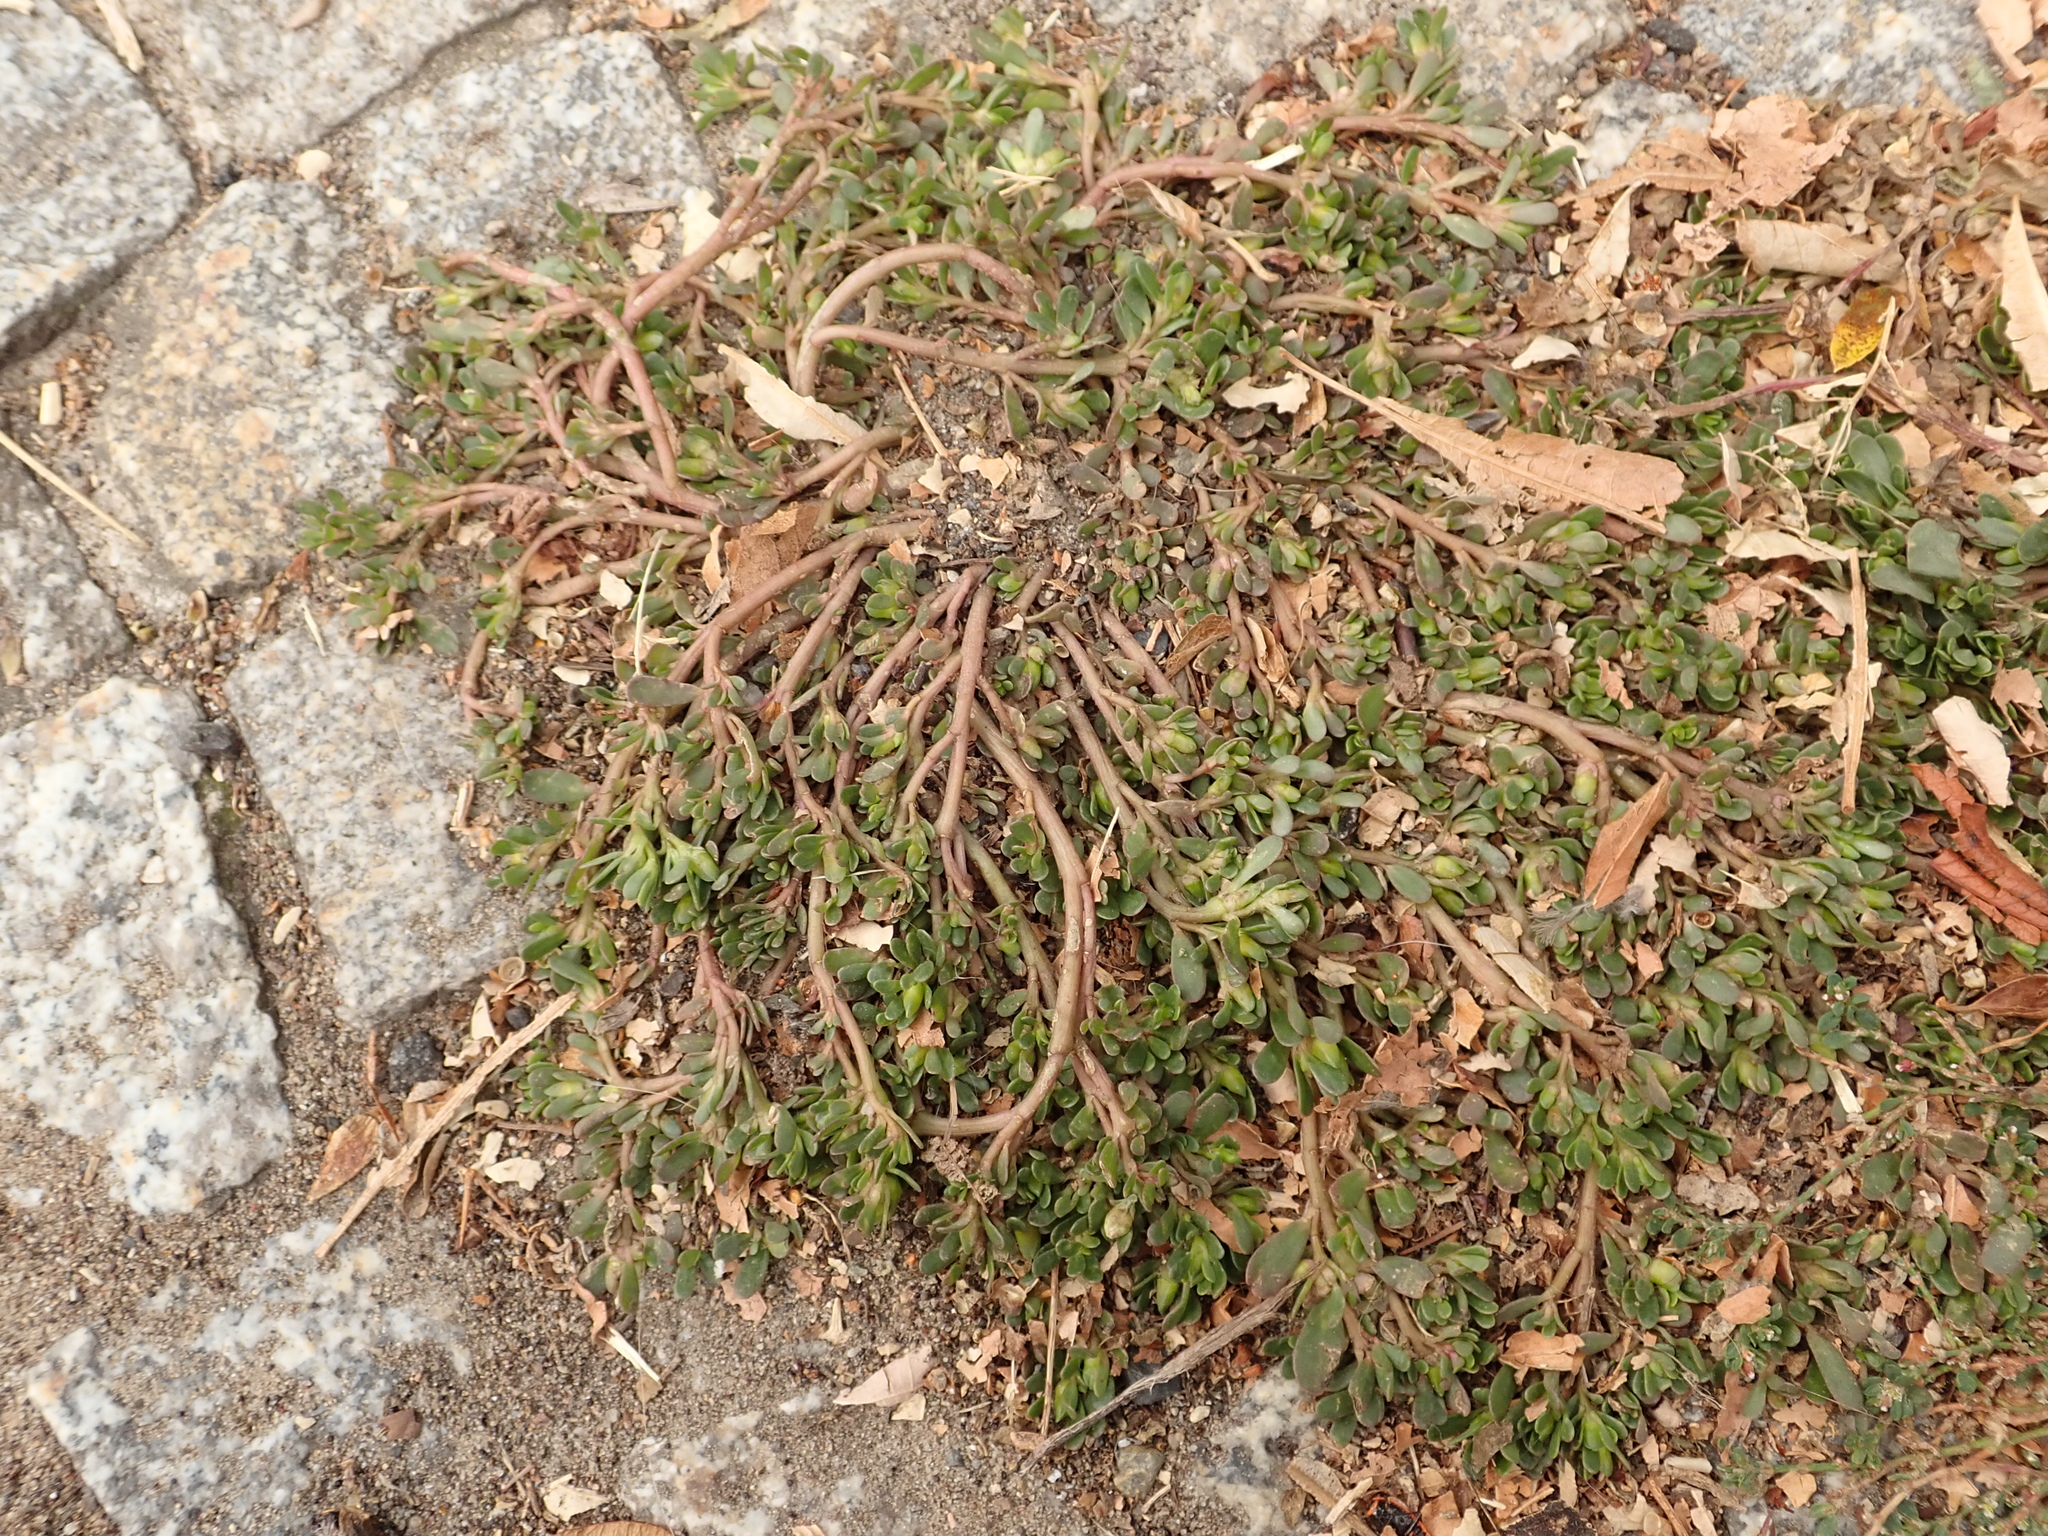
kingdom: Plantae
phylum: Tracheophyta
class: Magnoliopsida
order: Caryophyllales
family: Portulacaceae
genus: Portulaca
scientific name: Portulaca oleracea
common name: Common purslane
